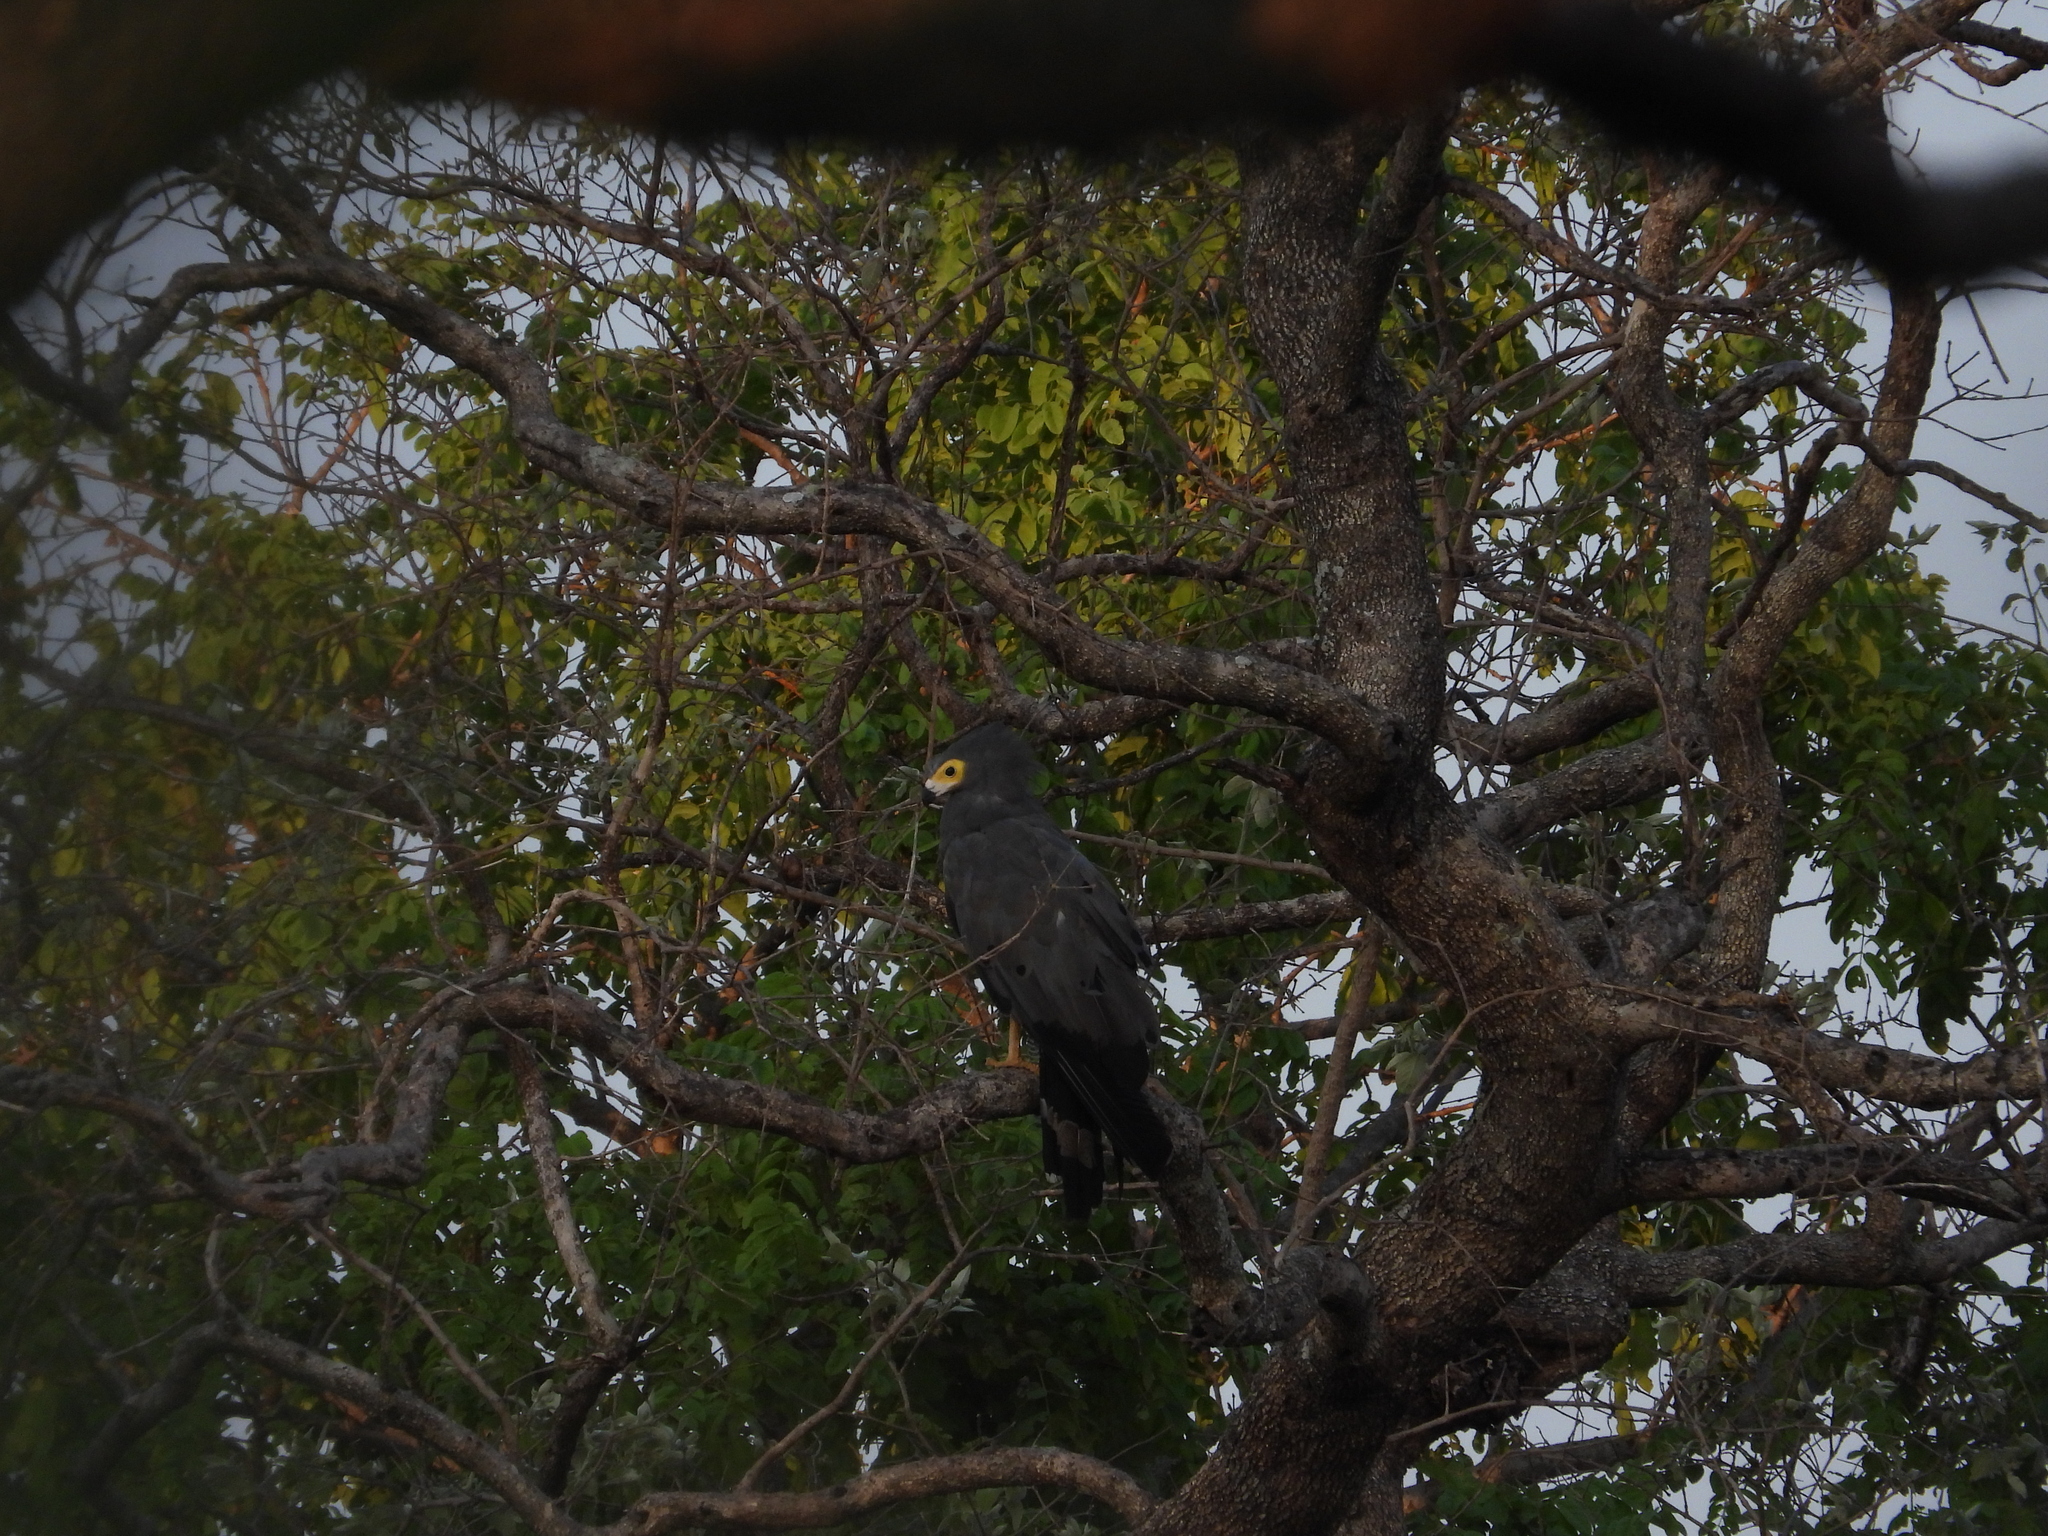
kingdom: Animalia
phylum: Chordata
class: Aves
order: Accipitriformes
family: Accipitridae
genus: Polyboroides
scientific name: Polyboroides typus
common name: African harrier-hawk
